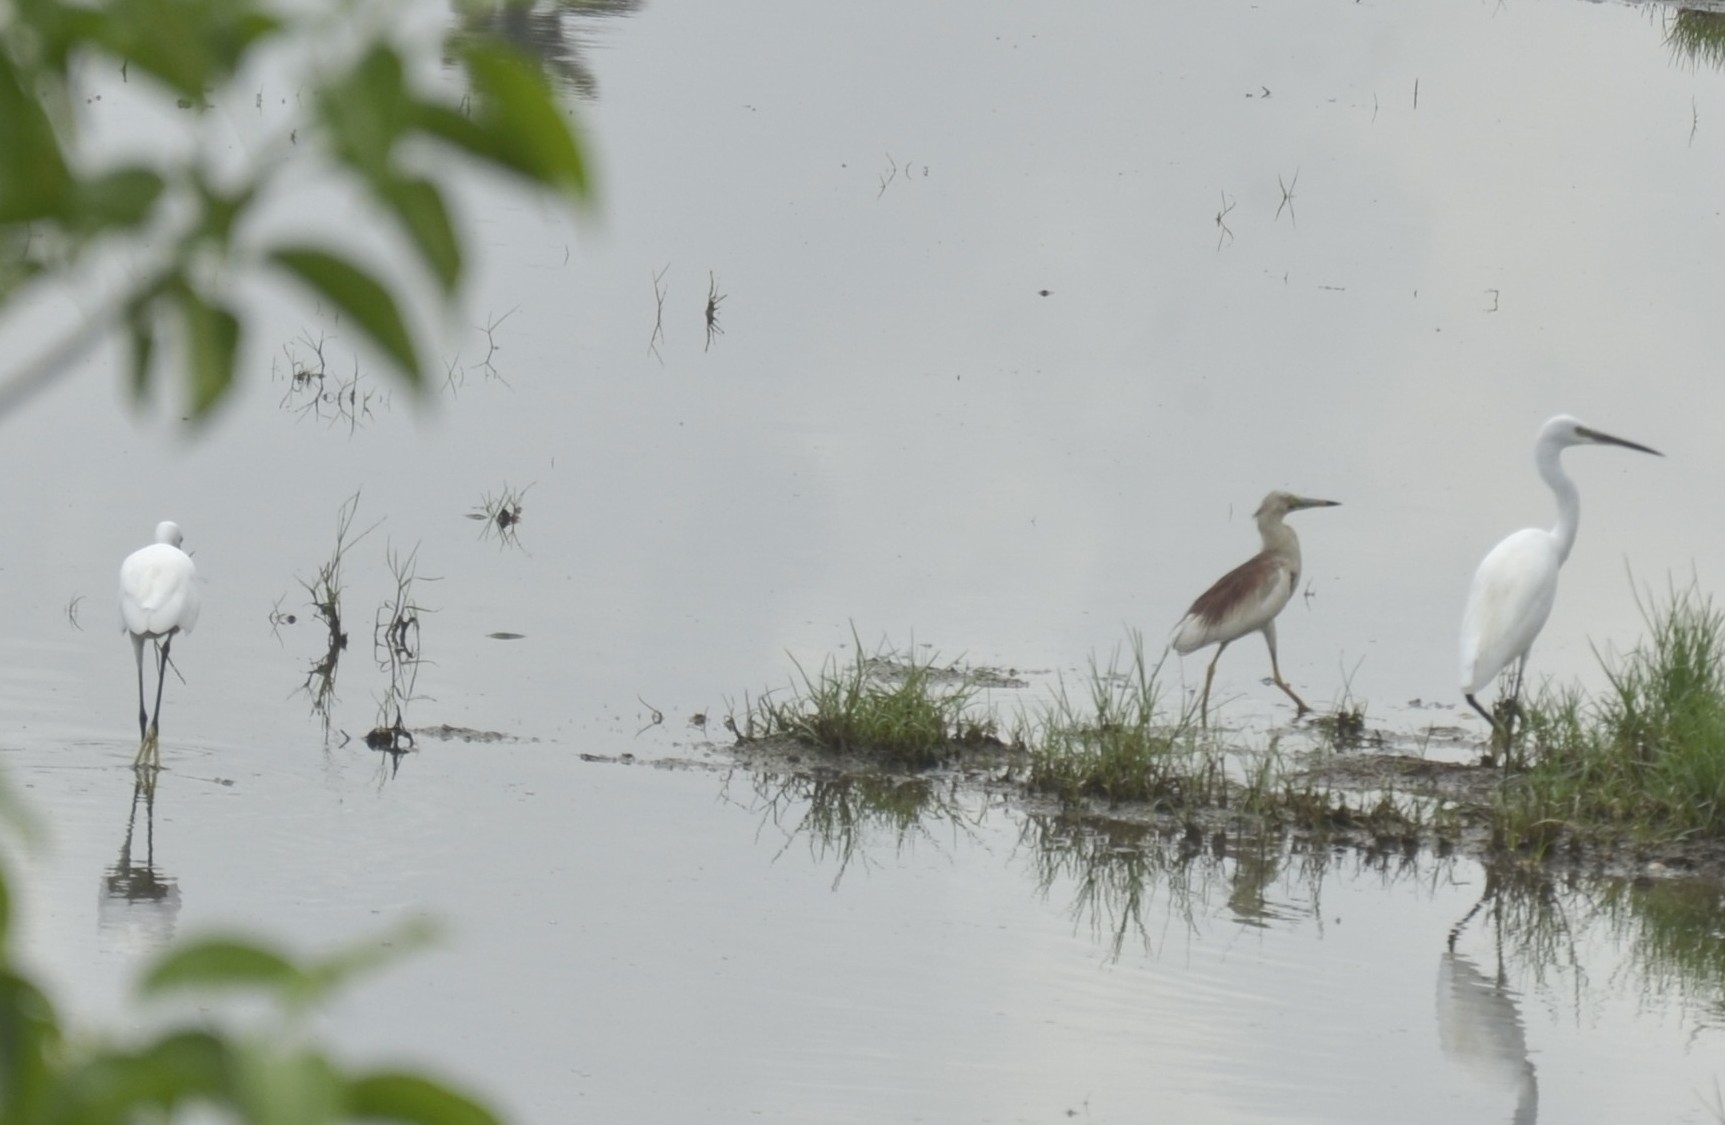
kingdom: Animalia
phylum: Chordata
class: Aves
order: Pelecaniformes
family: Ardeidae
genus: Egretta
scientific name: Egretta garzetta
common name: Little egret
